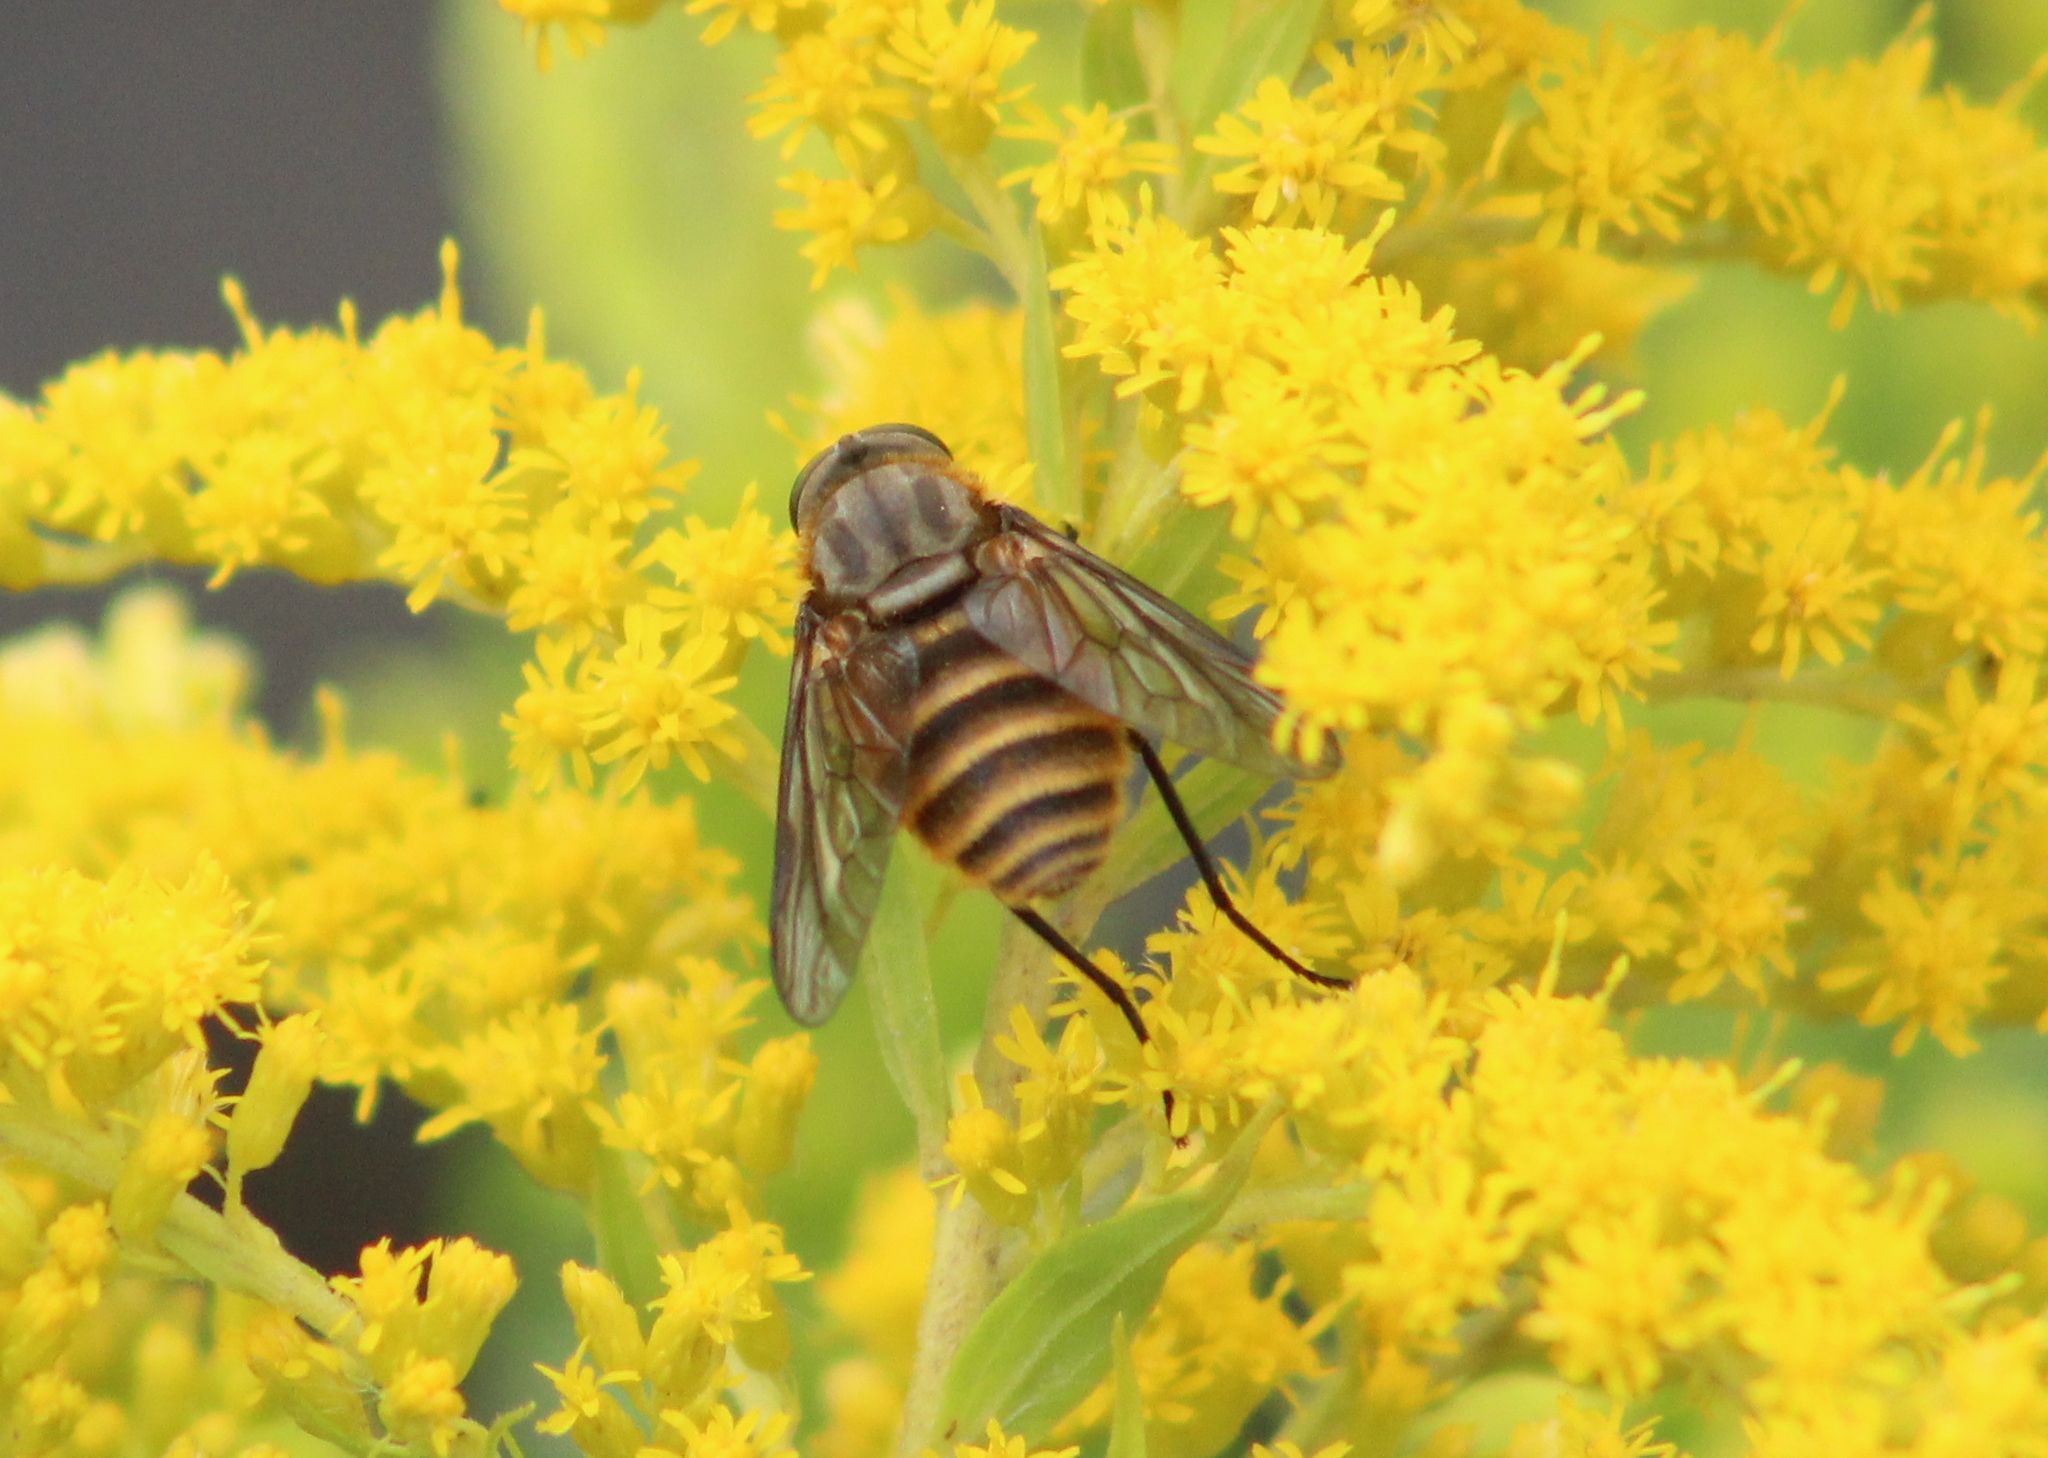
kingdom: Animalia
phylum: Arthropoda
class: Insecta
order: Diptera
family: Tabanidae
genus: Stonemyia
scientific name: Stonemyia tranquilla
